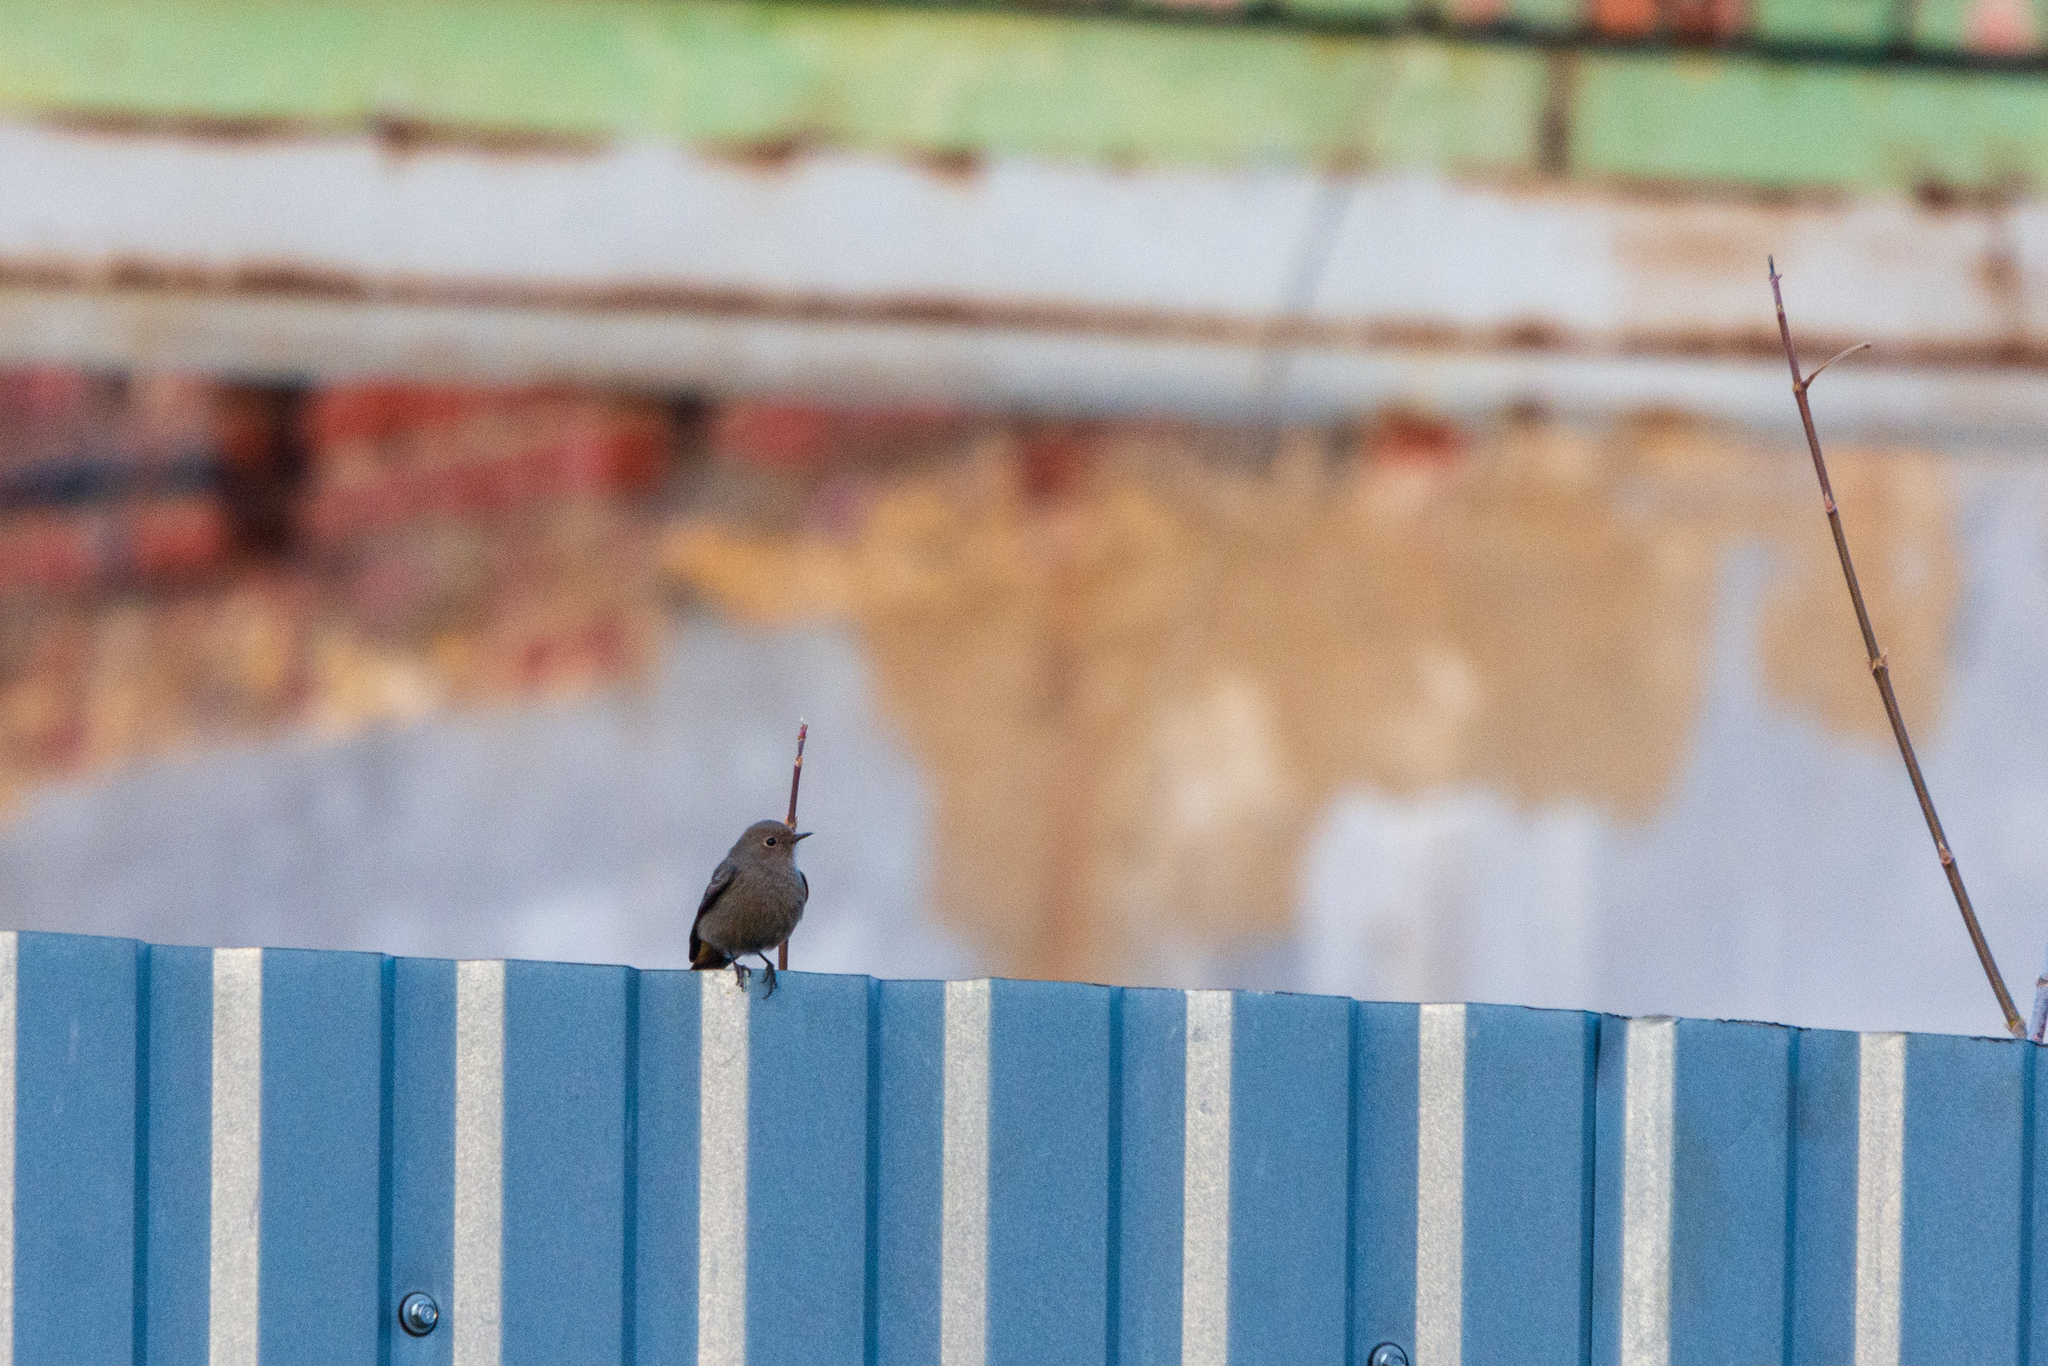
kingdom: Animalia
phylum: Chordata
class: Aves
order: Passeriformes
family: Muscicapidae
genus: Phoenicurus
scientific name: Phoenicurus ochruros
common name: Black redstart
